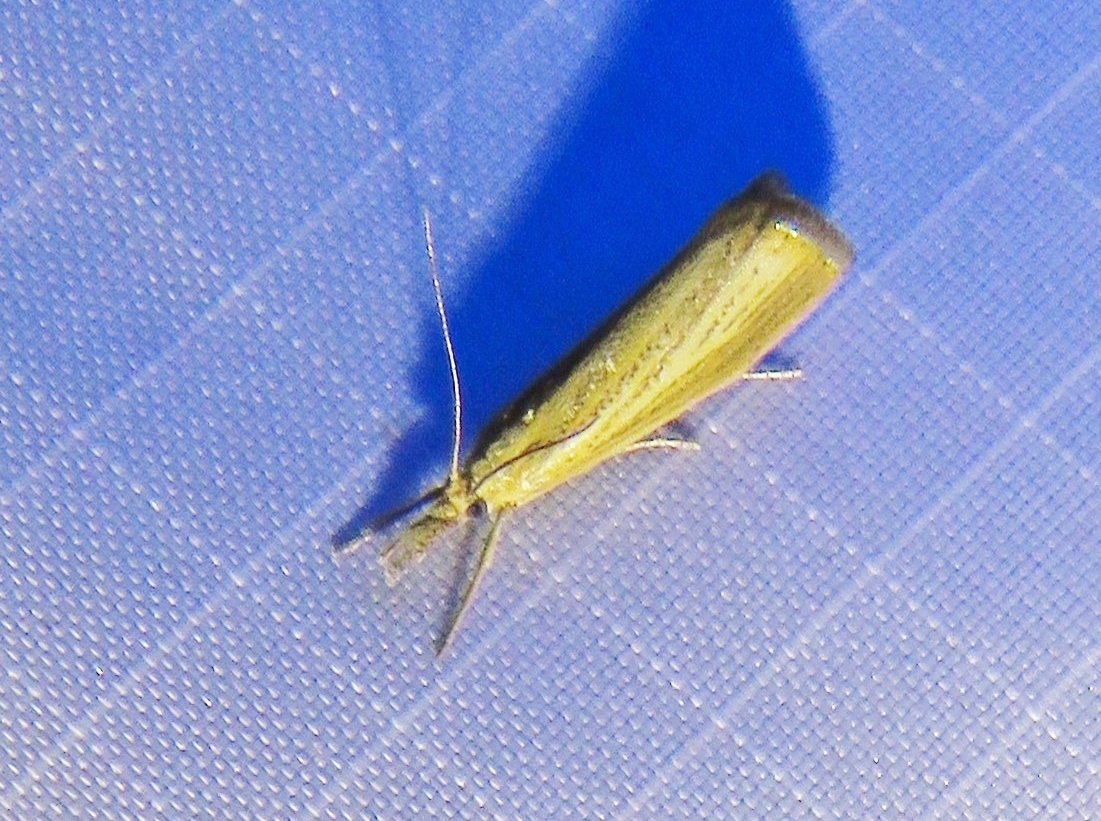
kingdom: Animalia
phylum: Arthropoda
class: Insecta
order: Lepidoptera
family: Crambidae
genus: Agriphila
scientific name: Agriphila straminella
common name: Straw grass-veneer
